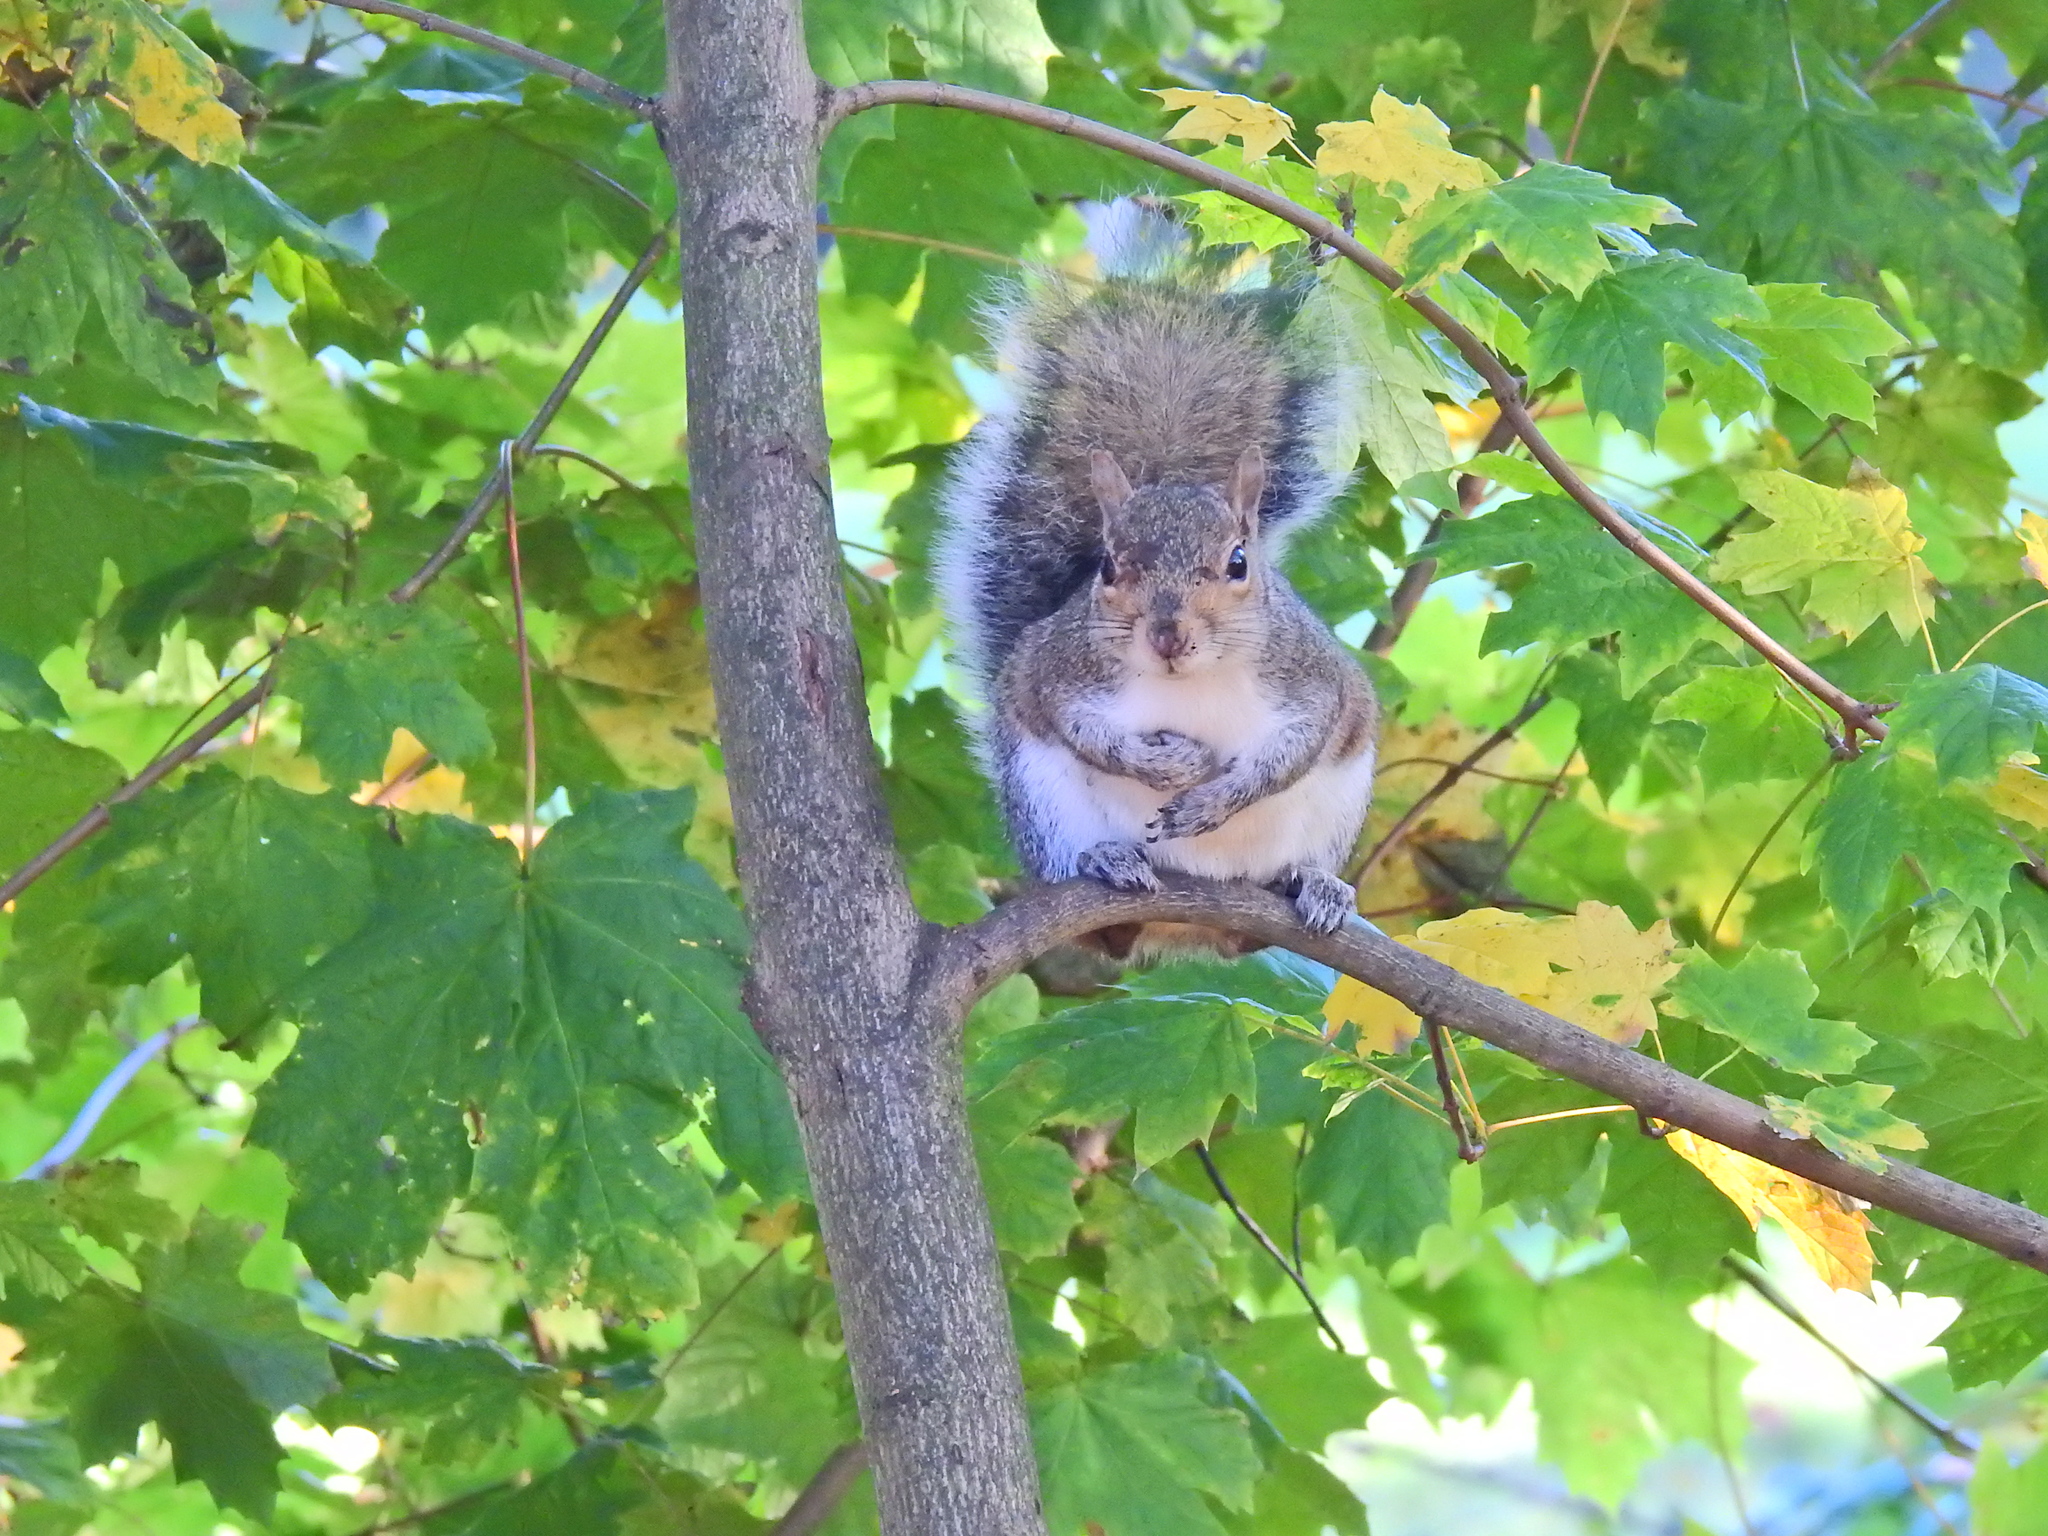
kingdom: Animalia
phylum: Chordata
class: Mammalia
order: Rodentia
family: Sciuridae
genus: Sciurus
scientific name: Sciurus carolinensis
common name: Eastern gray squirrel
